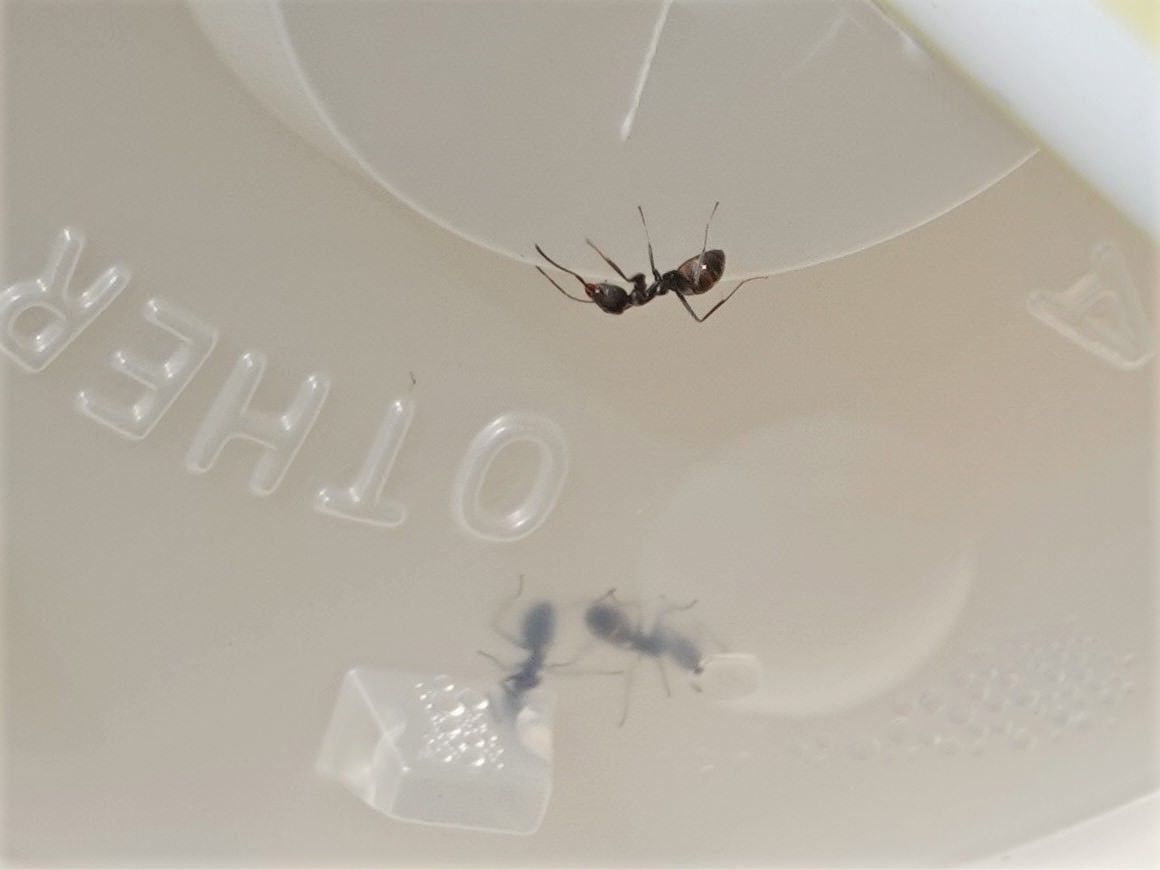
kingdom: Animalia
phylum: Arthropoda
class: Insecta
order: Hymenoptera
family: Formicidae
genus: Technomyrmex
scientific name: Technomyrmex jocosus
